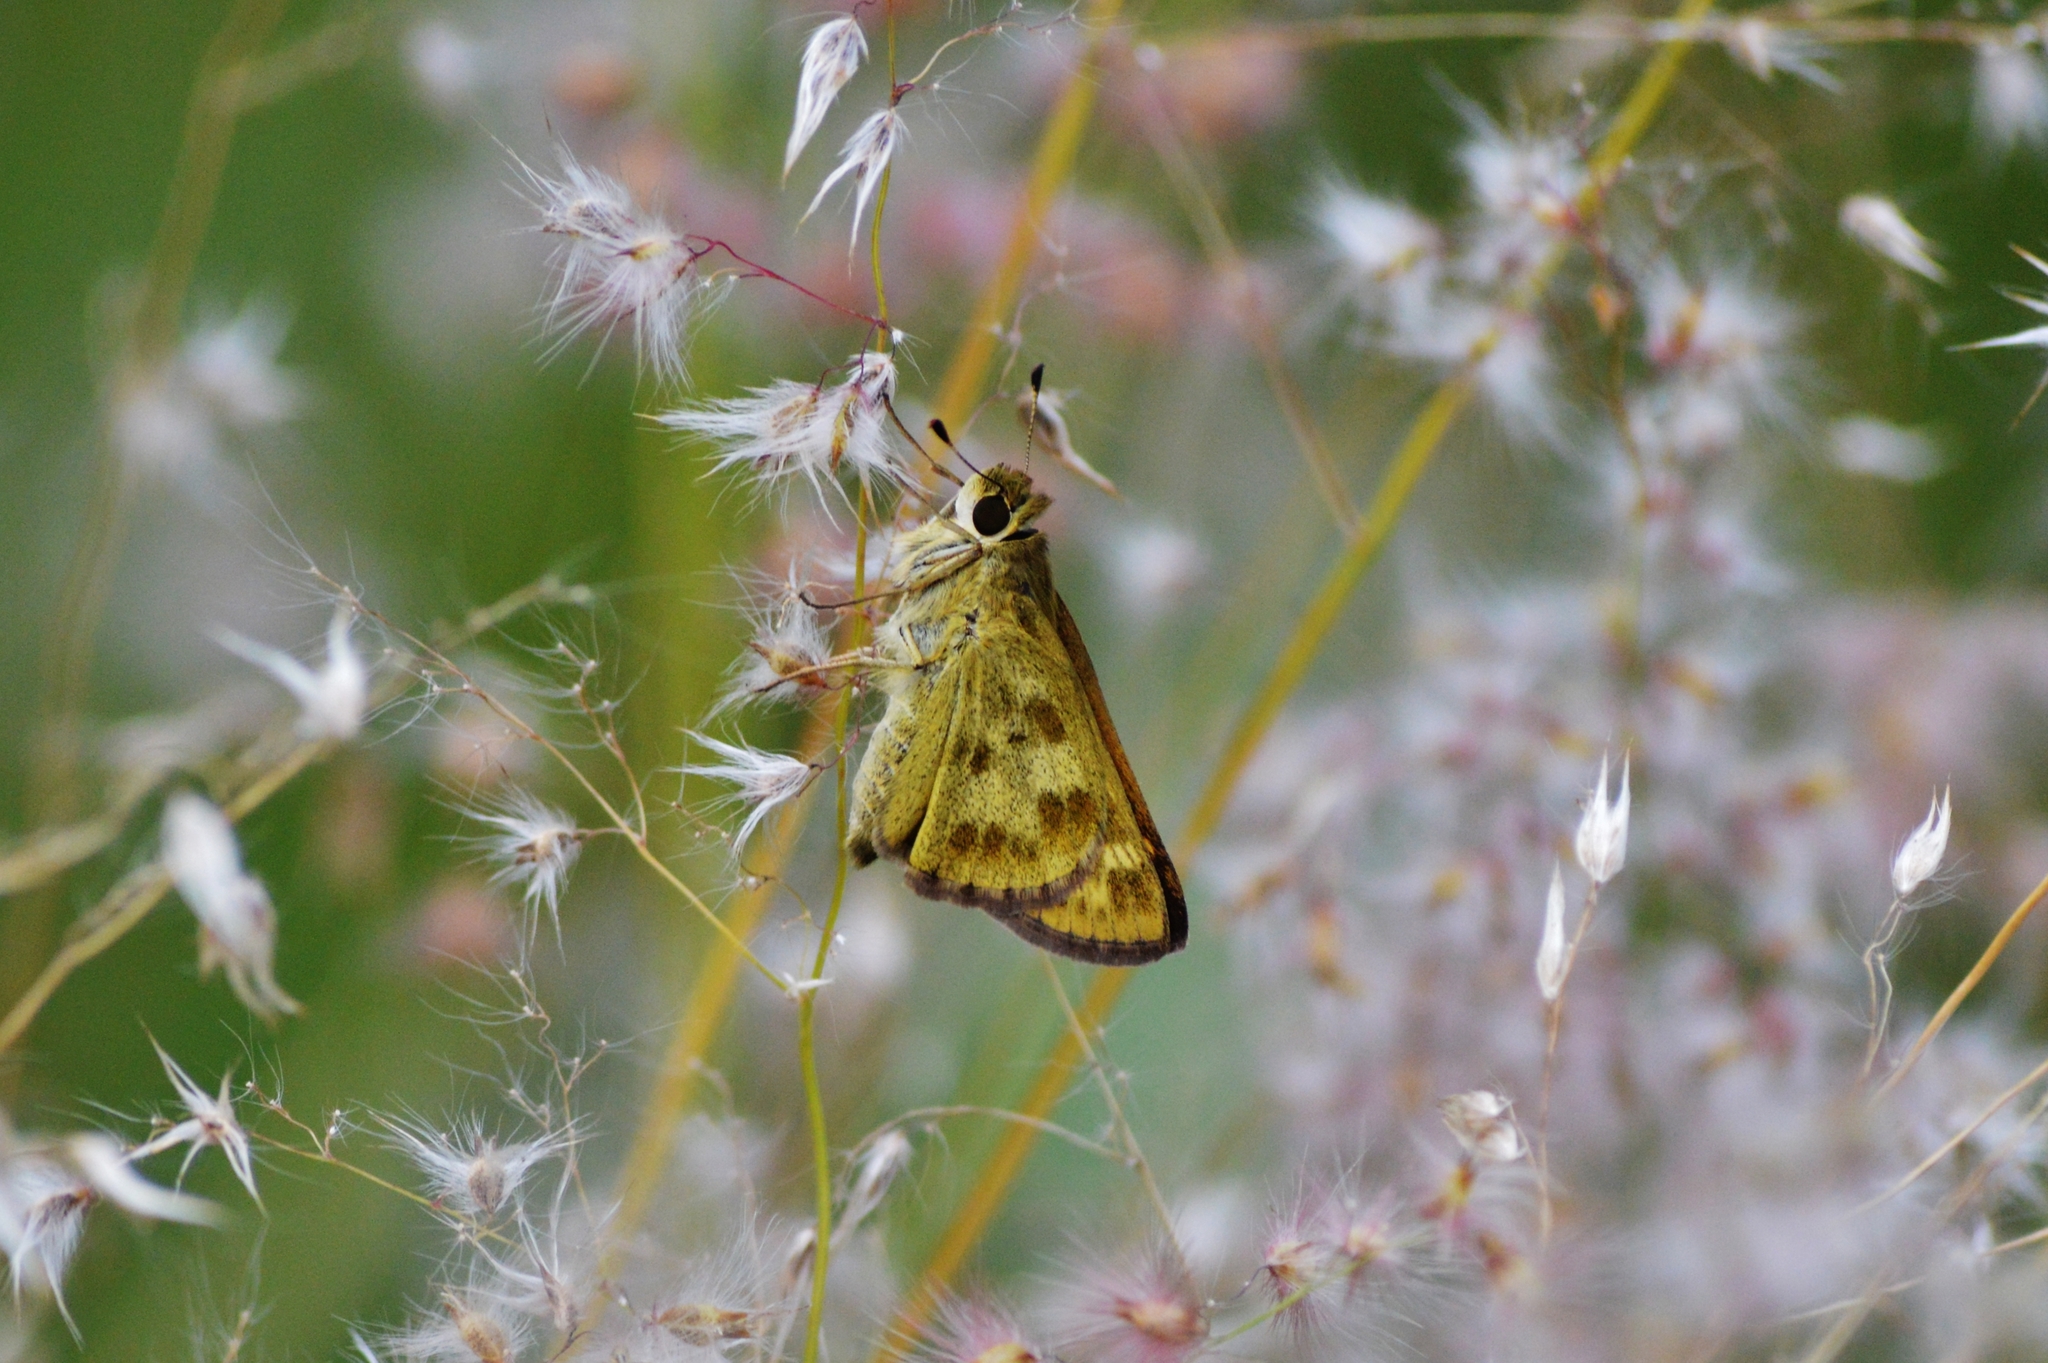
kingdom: Animalia
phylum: Arthropoda
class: Insecta
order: Lepidoptera
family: Hesperiidae
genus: Hylephila
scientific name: Hylephila phyleus
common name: Fiery skipper
